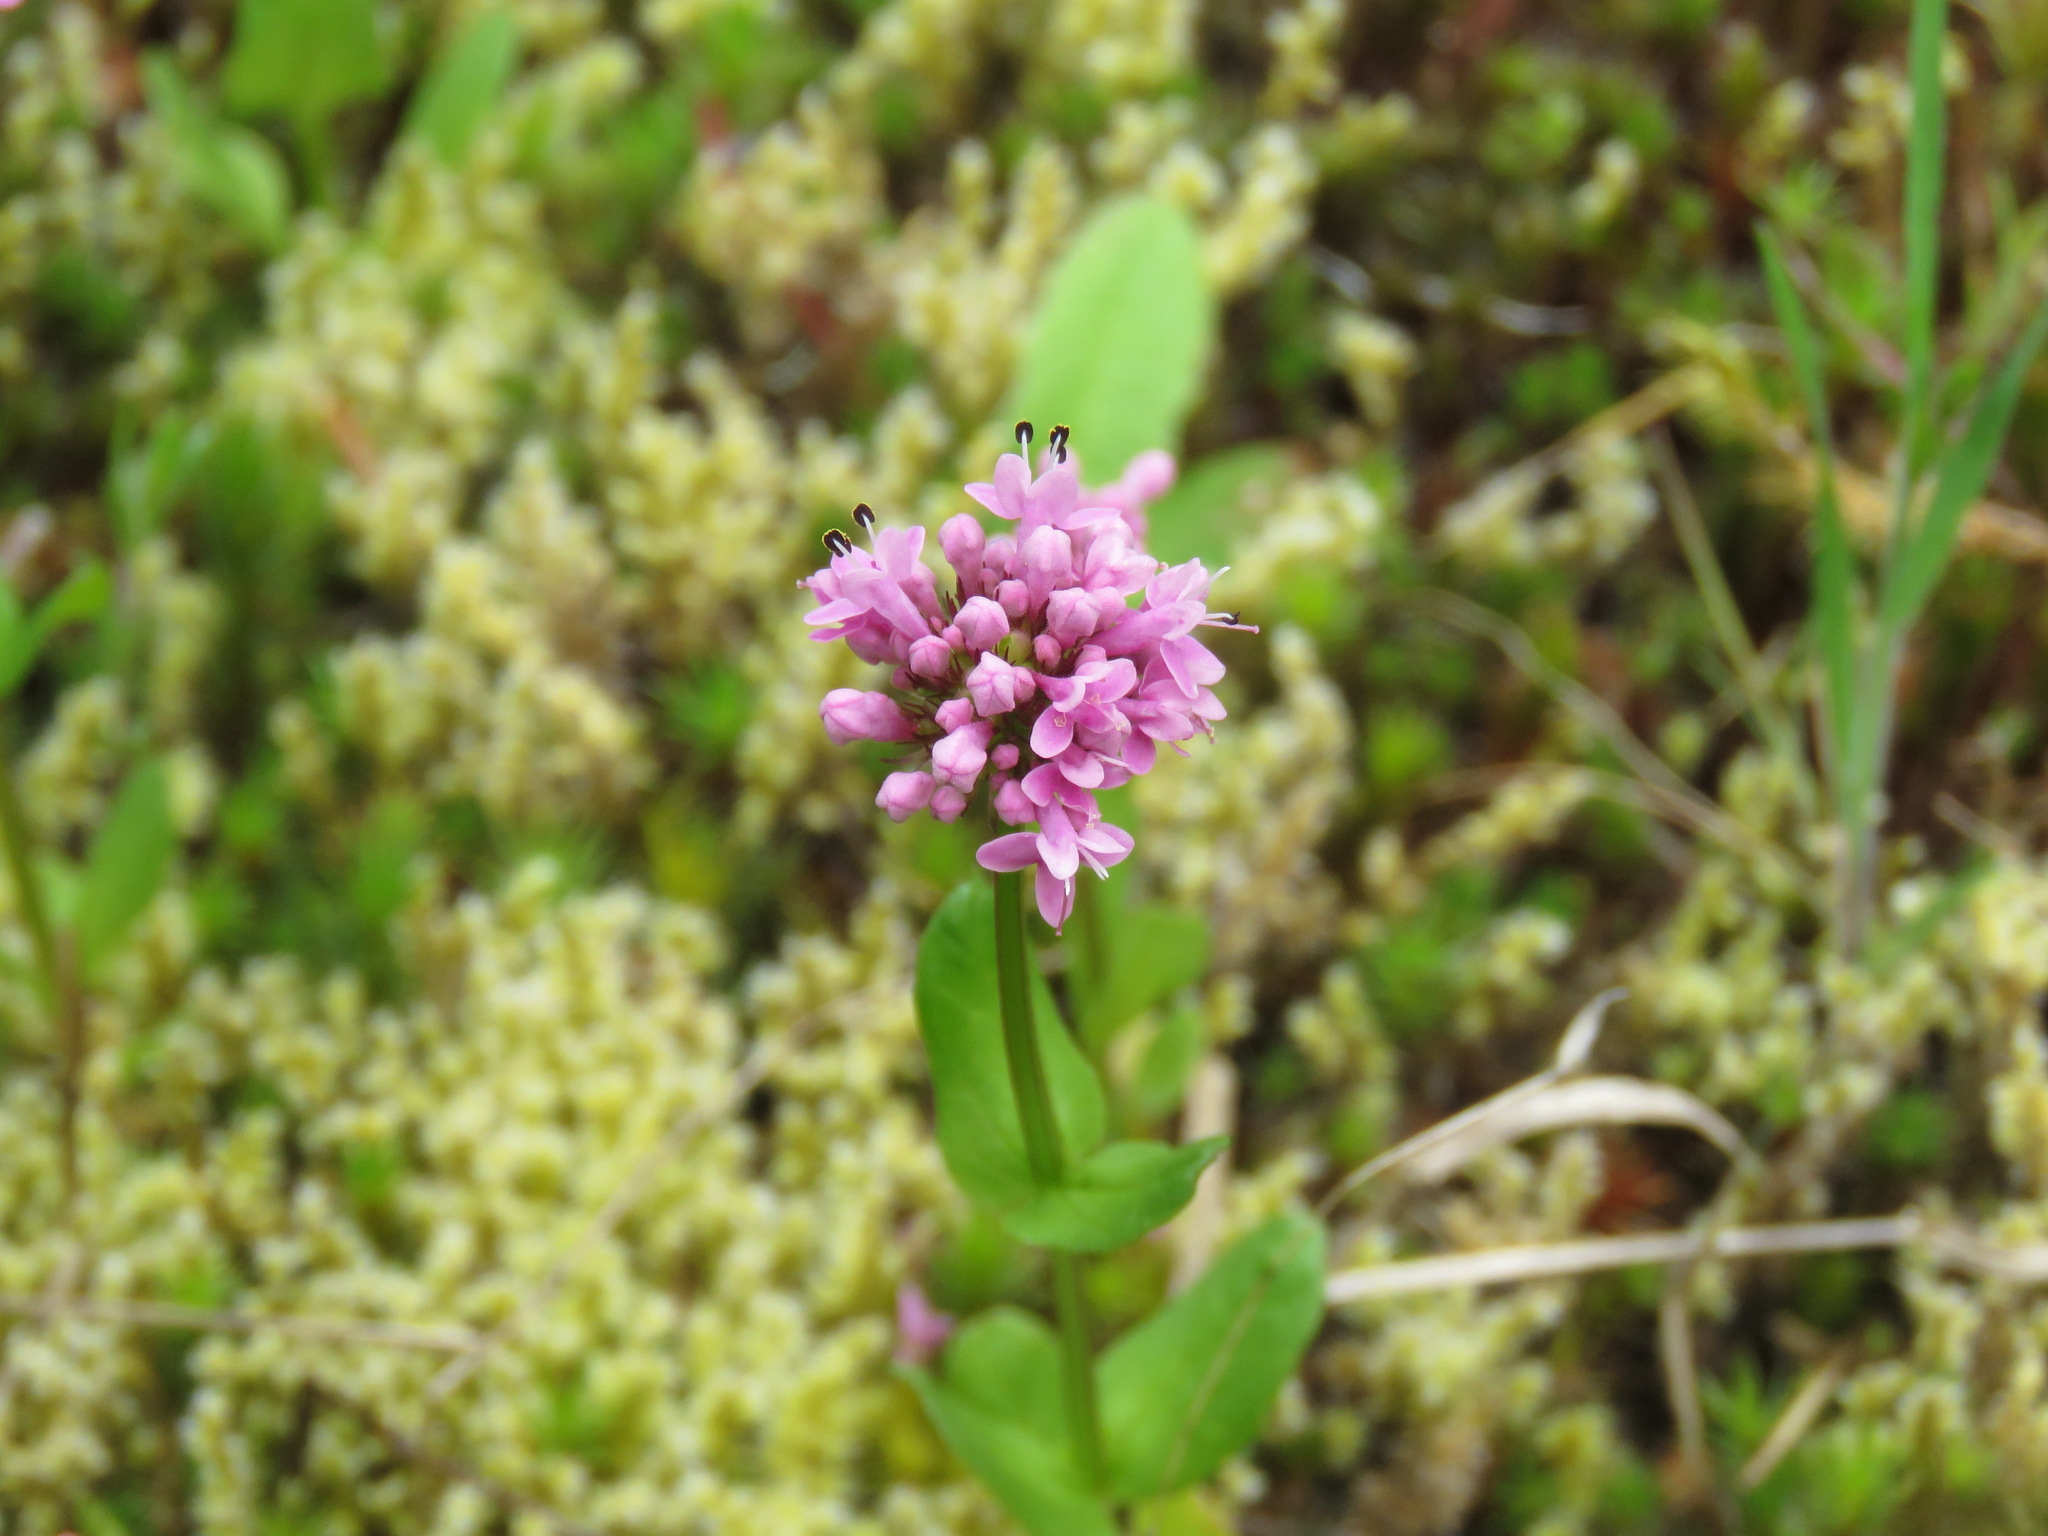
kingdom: Plantae
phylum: Tracheophyta
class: Magnoliopsida
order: Dipsacales
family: Caprifoliaceae
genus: Plectritis
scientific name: Plectritis congesta
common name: Pink plectritis
